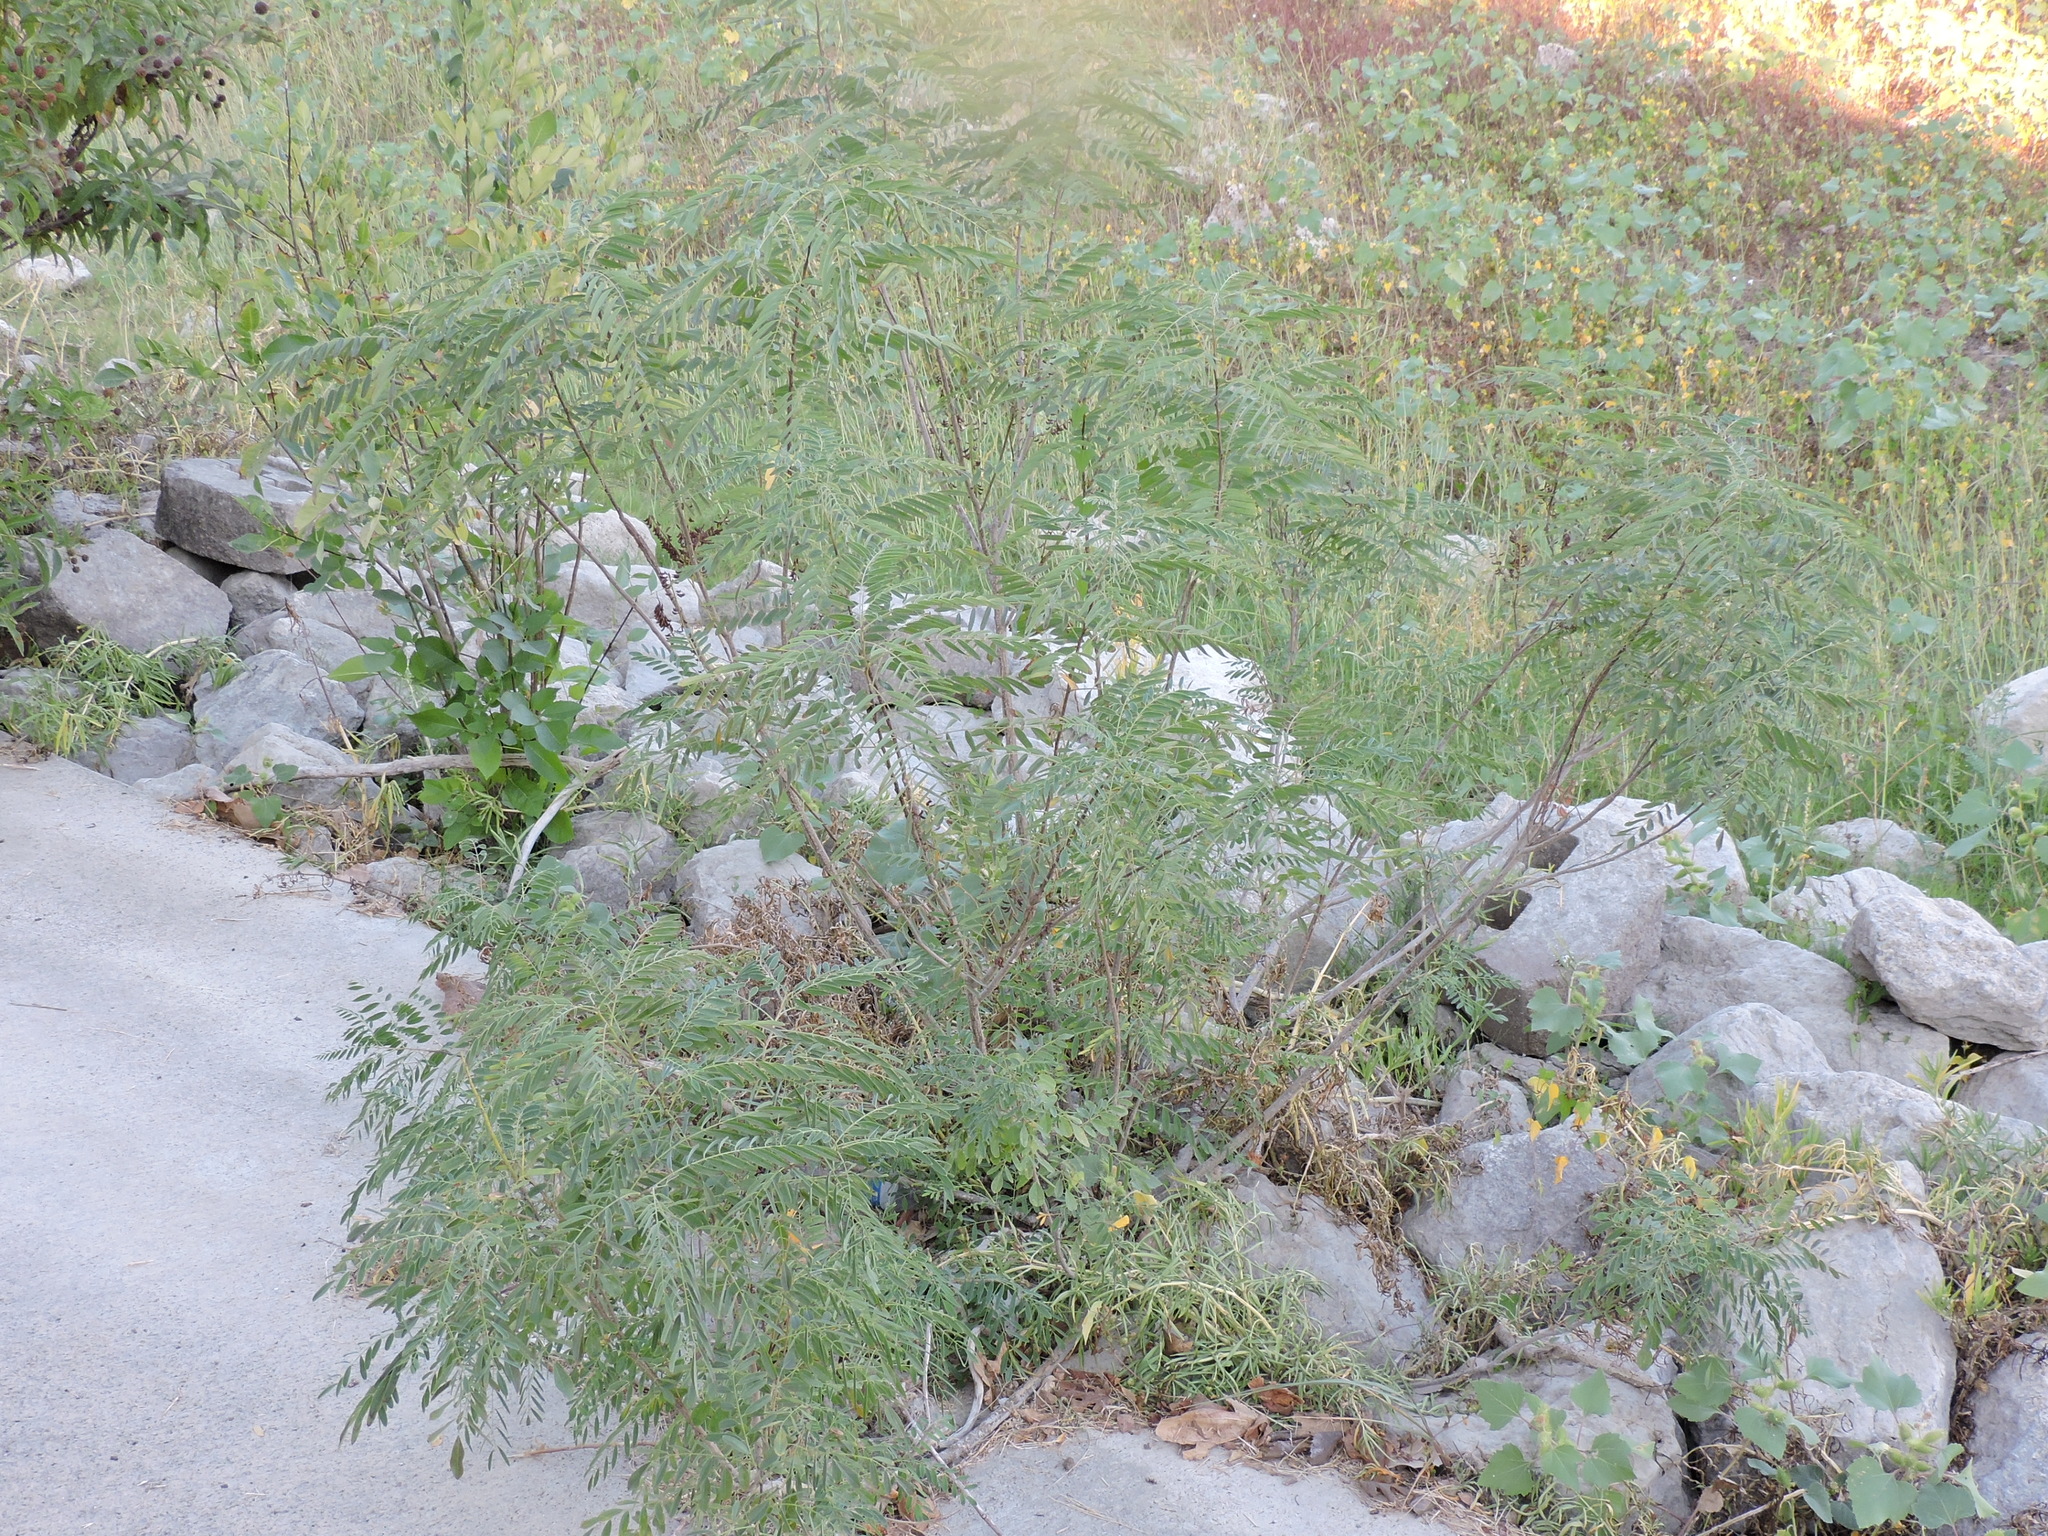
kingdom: Plantae
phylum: Tracheophyta
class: Magnoliopsida
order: Fabales
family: Fabaceae
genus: Amorpha
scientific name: Amorpha fruticosa
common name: False indigo
